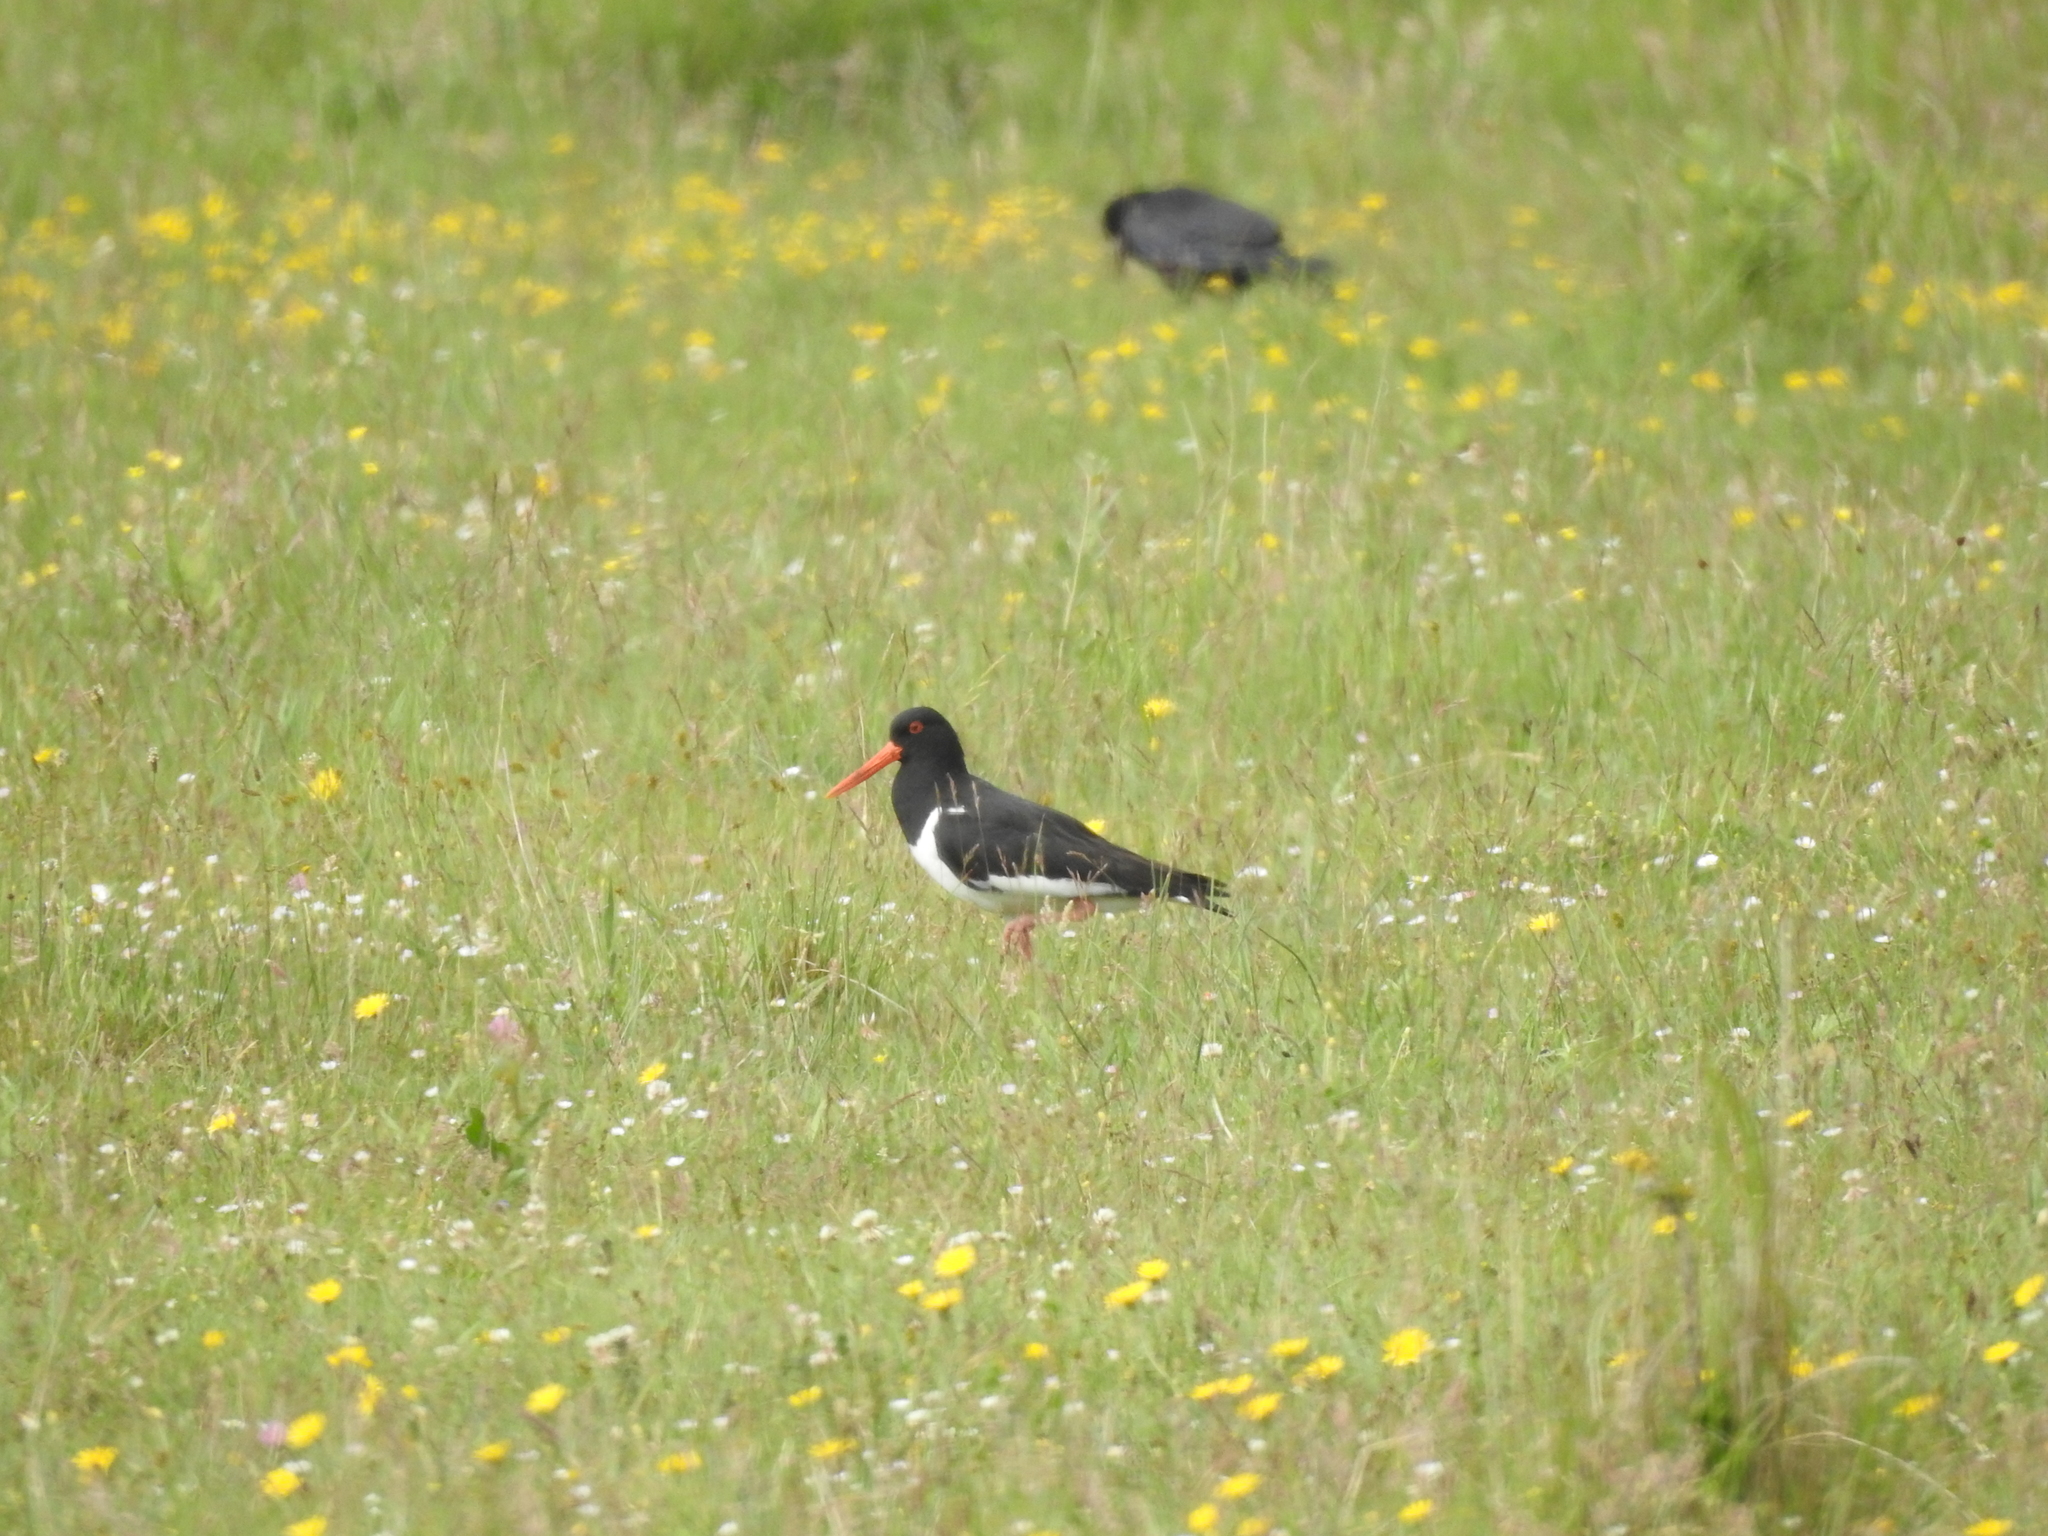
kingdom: Animalia
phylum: Chordata
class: Aves
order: Charadriiformes
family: Haematopodidae
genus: Haematopus
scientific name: Haematopus ostralegus
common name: Eurasian oystercatcher
